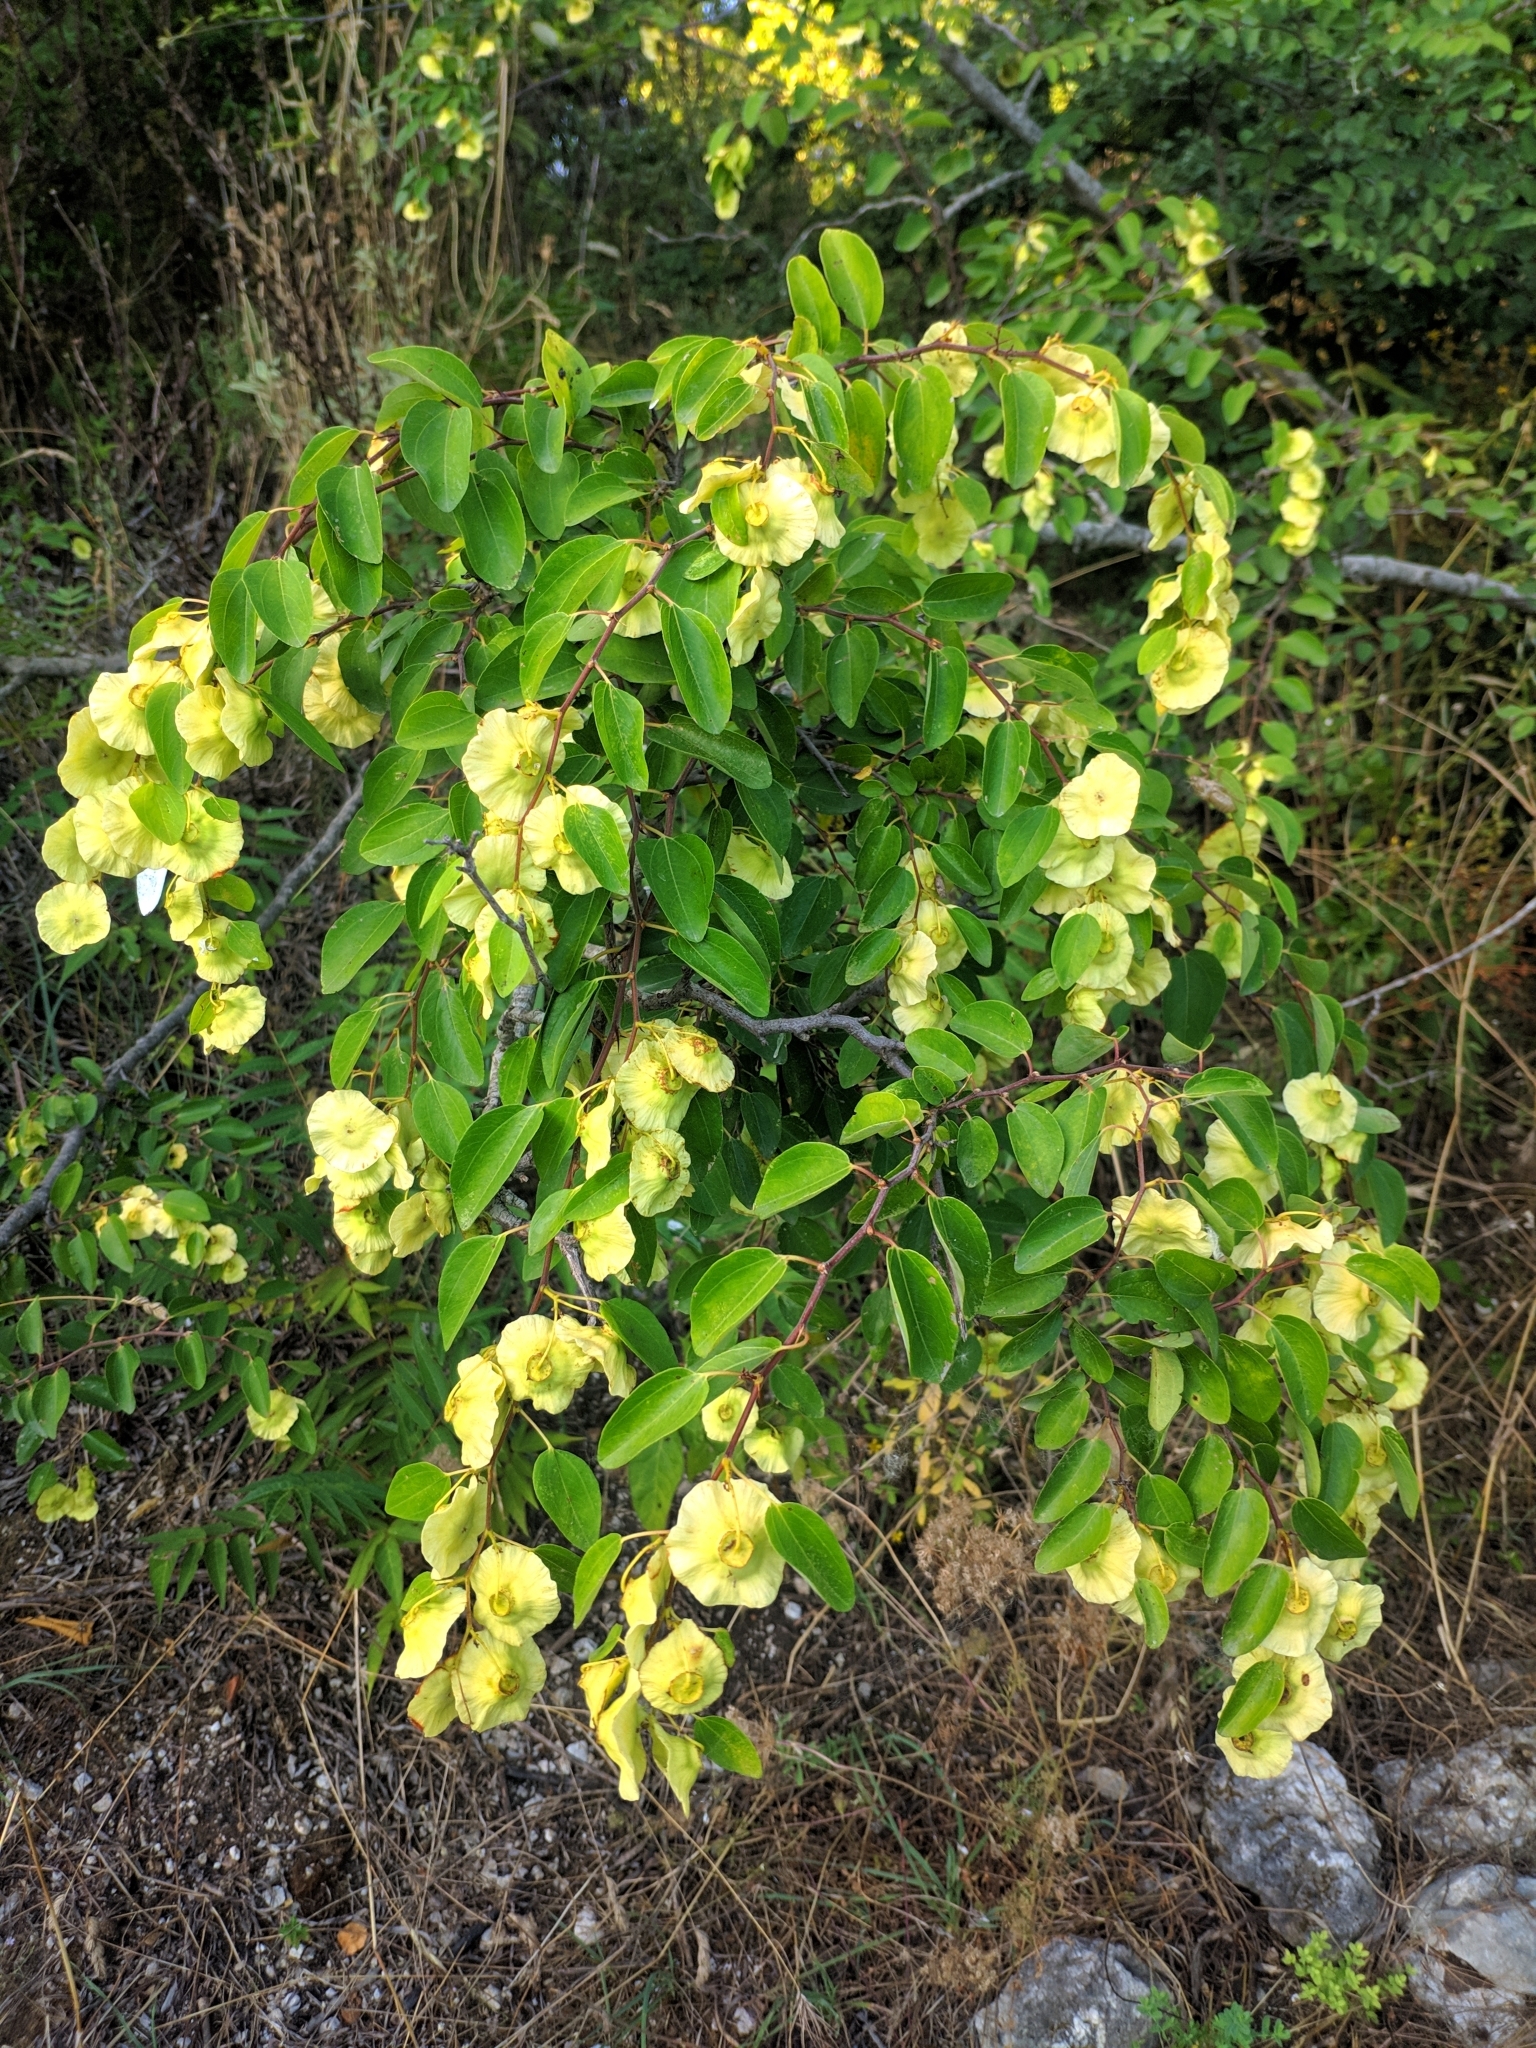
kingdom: Plantae
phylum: Tracheophyta
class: Magnoliopsida
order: Rosales
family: Rhamnaceae
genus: Paliurus
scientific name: Paliurus spina-christi
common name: Jeruselem thorn
